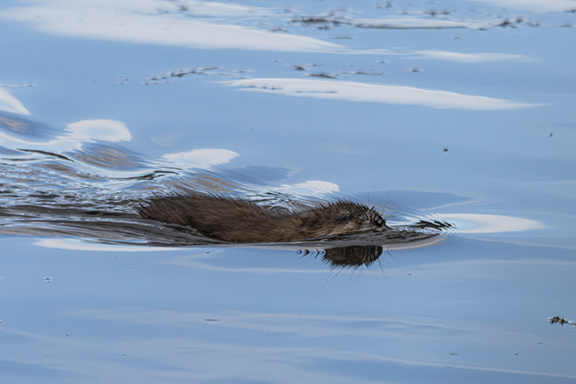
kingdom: Animalia
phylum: Chordata
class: Mammalia
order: Rodentia
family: Cricetidae
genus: Ondatra
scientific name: Ondatra zibethicus
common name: Muskrat
